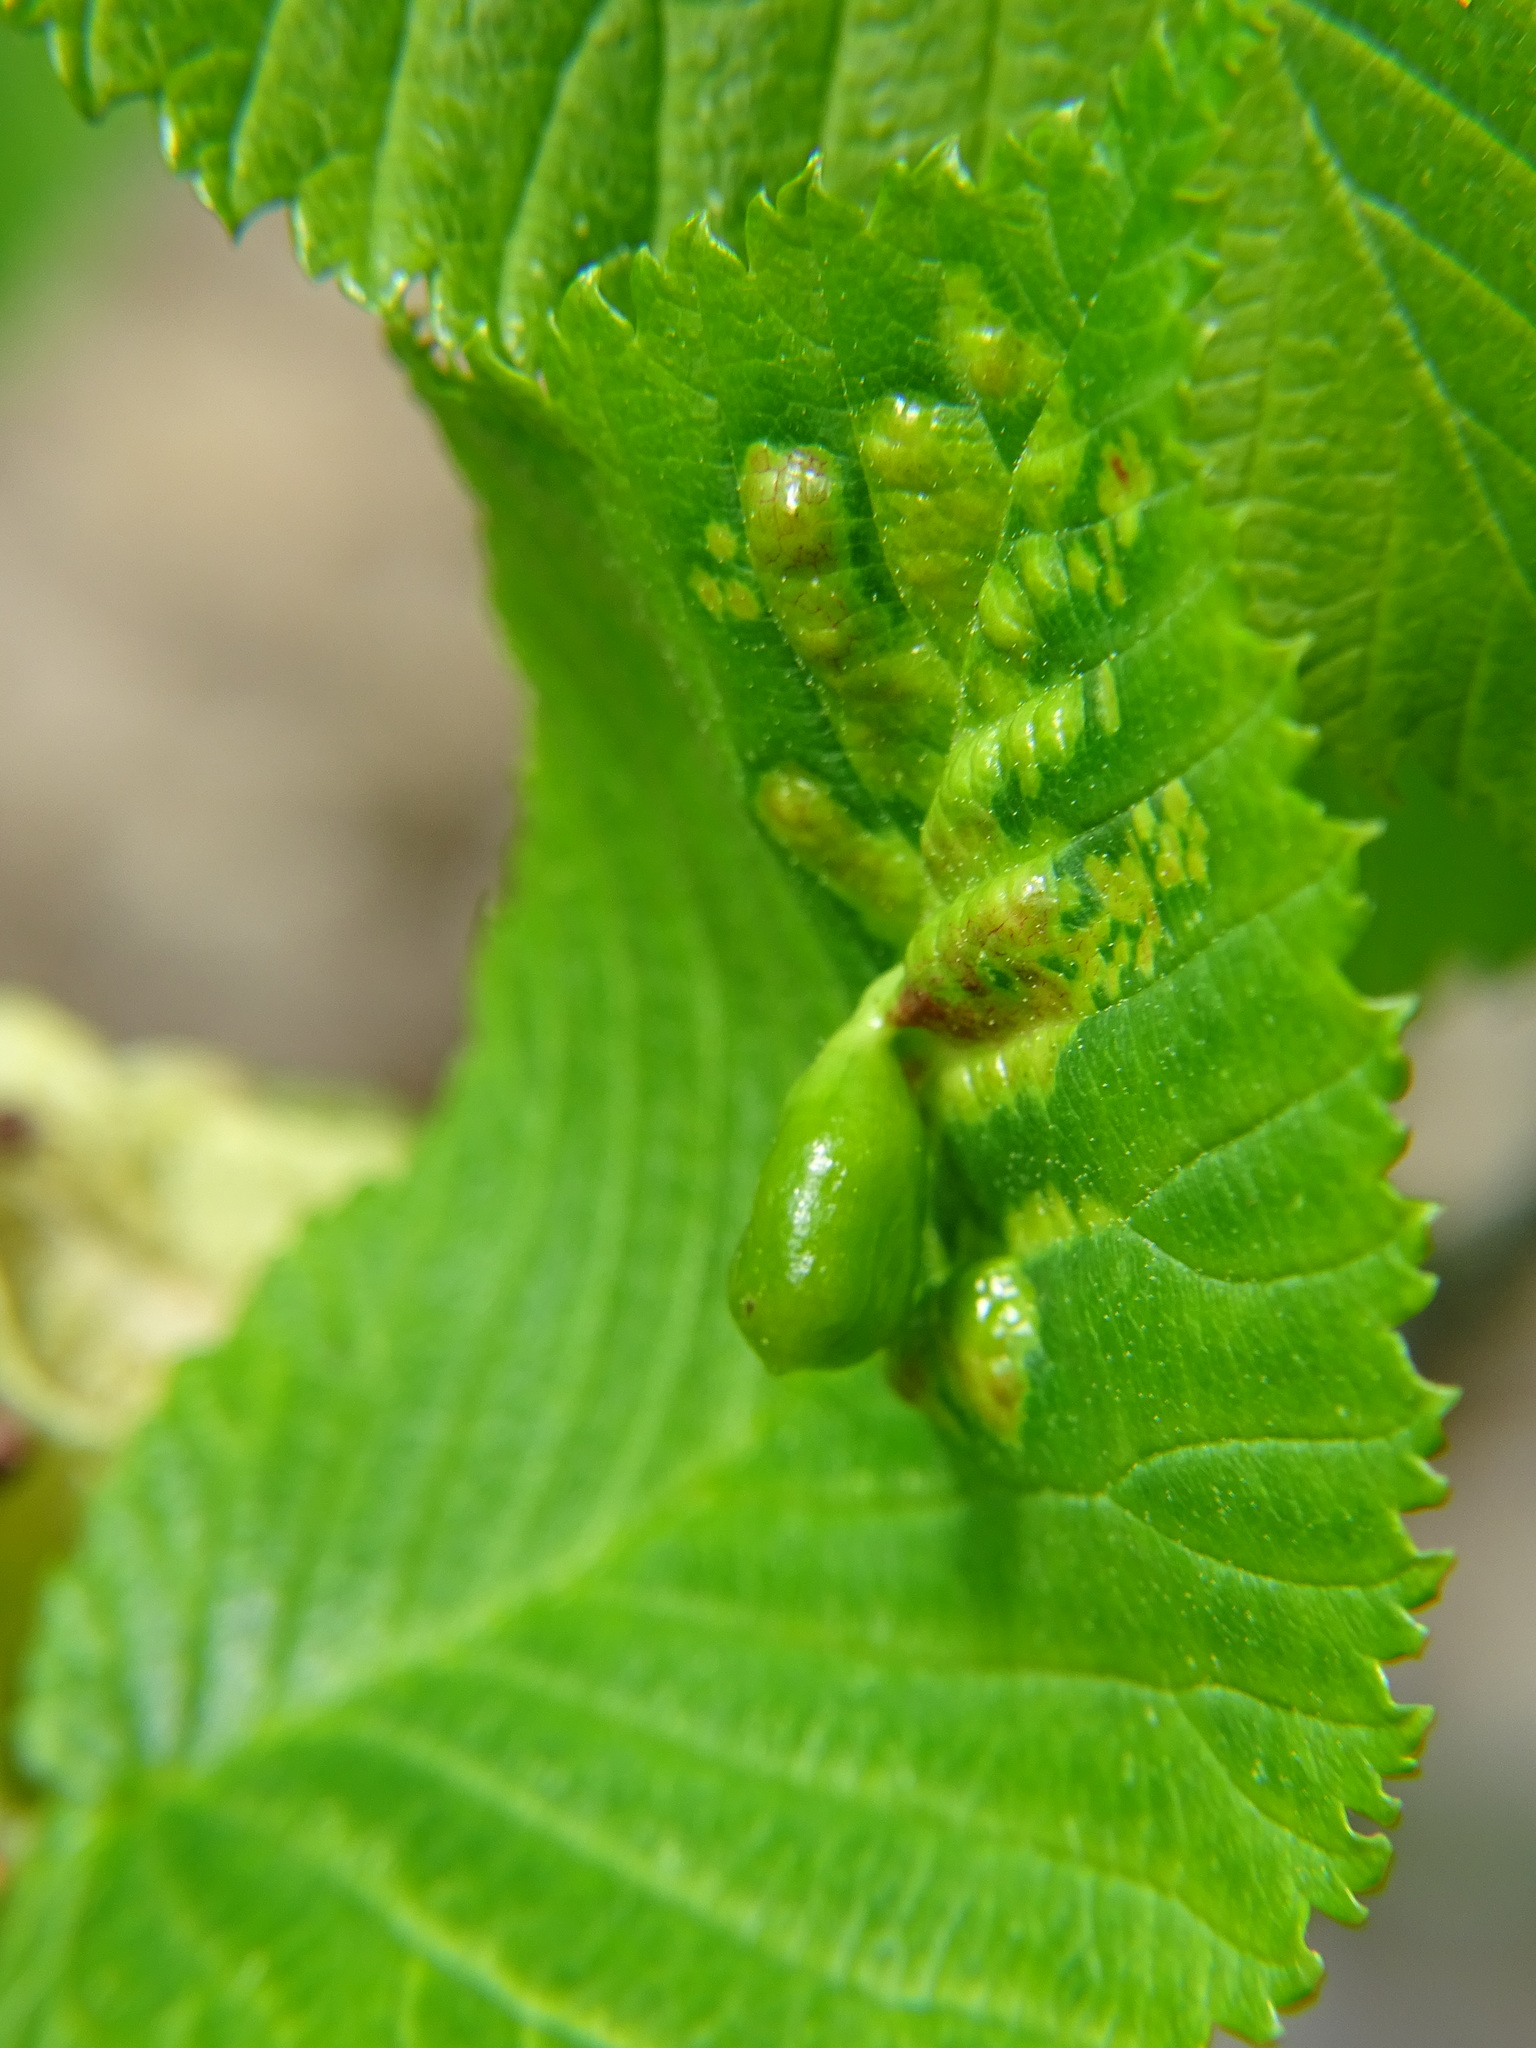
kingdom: Animalia
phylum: Arthropoda
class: Insecta
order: Hemiptera
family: Aphididae
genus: Tetraneura
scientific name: Tetraneura ulmi
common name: Aphid
